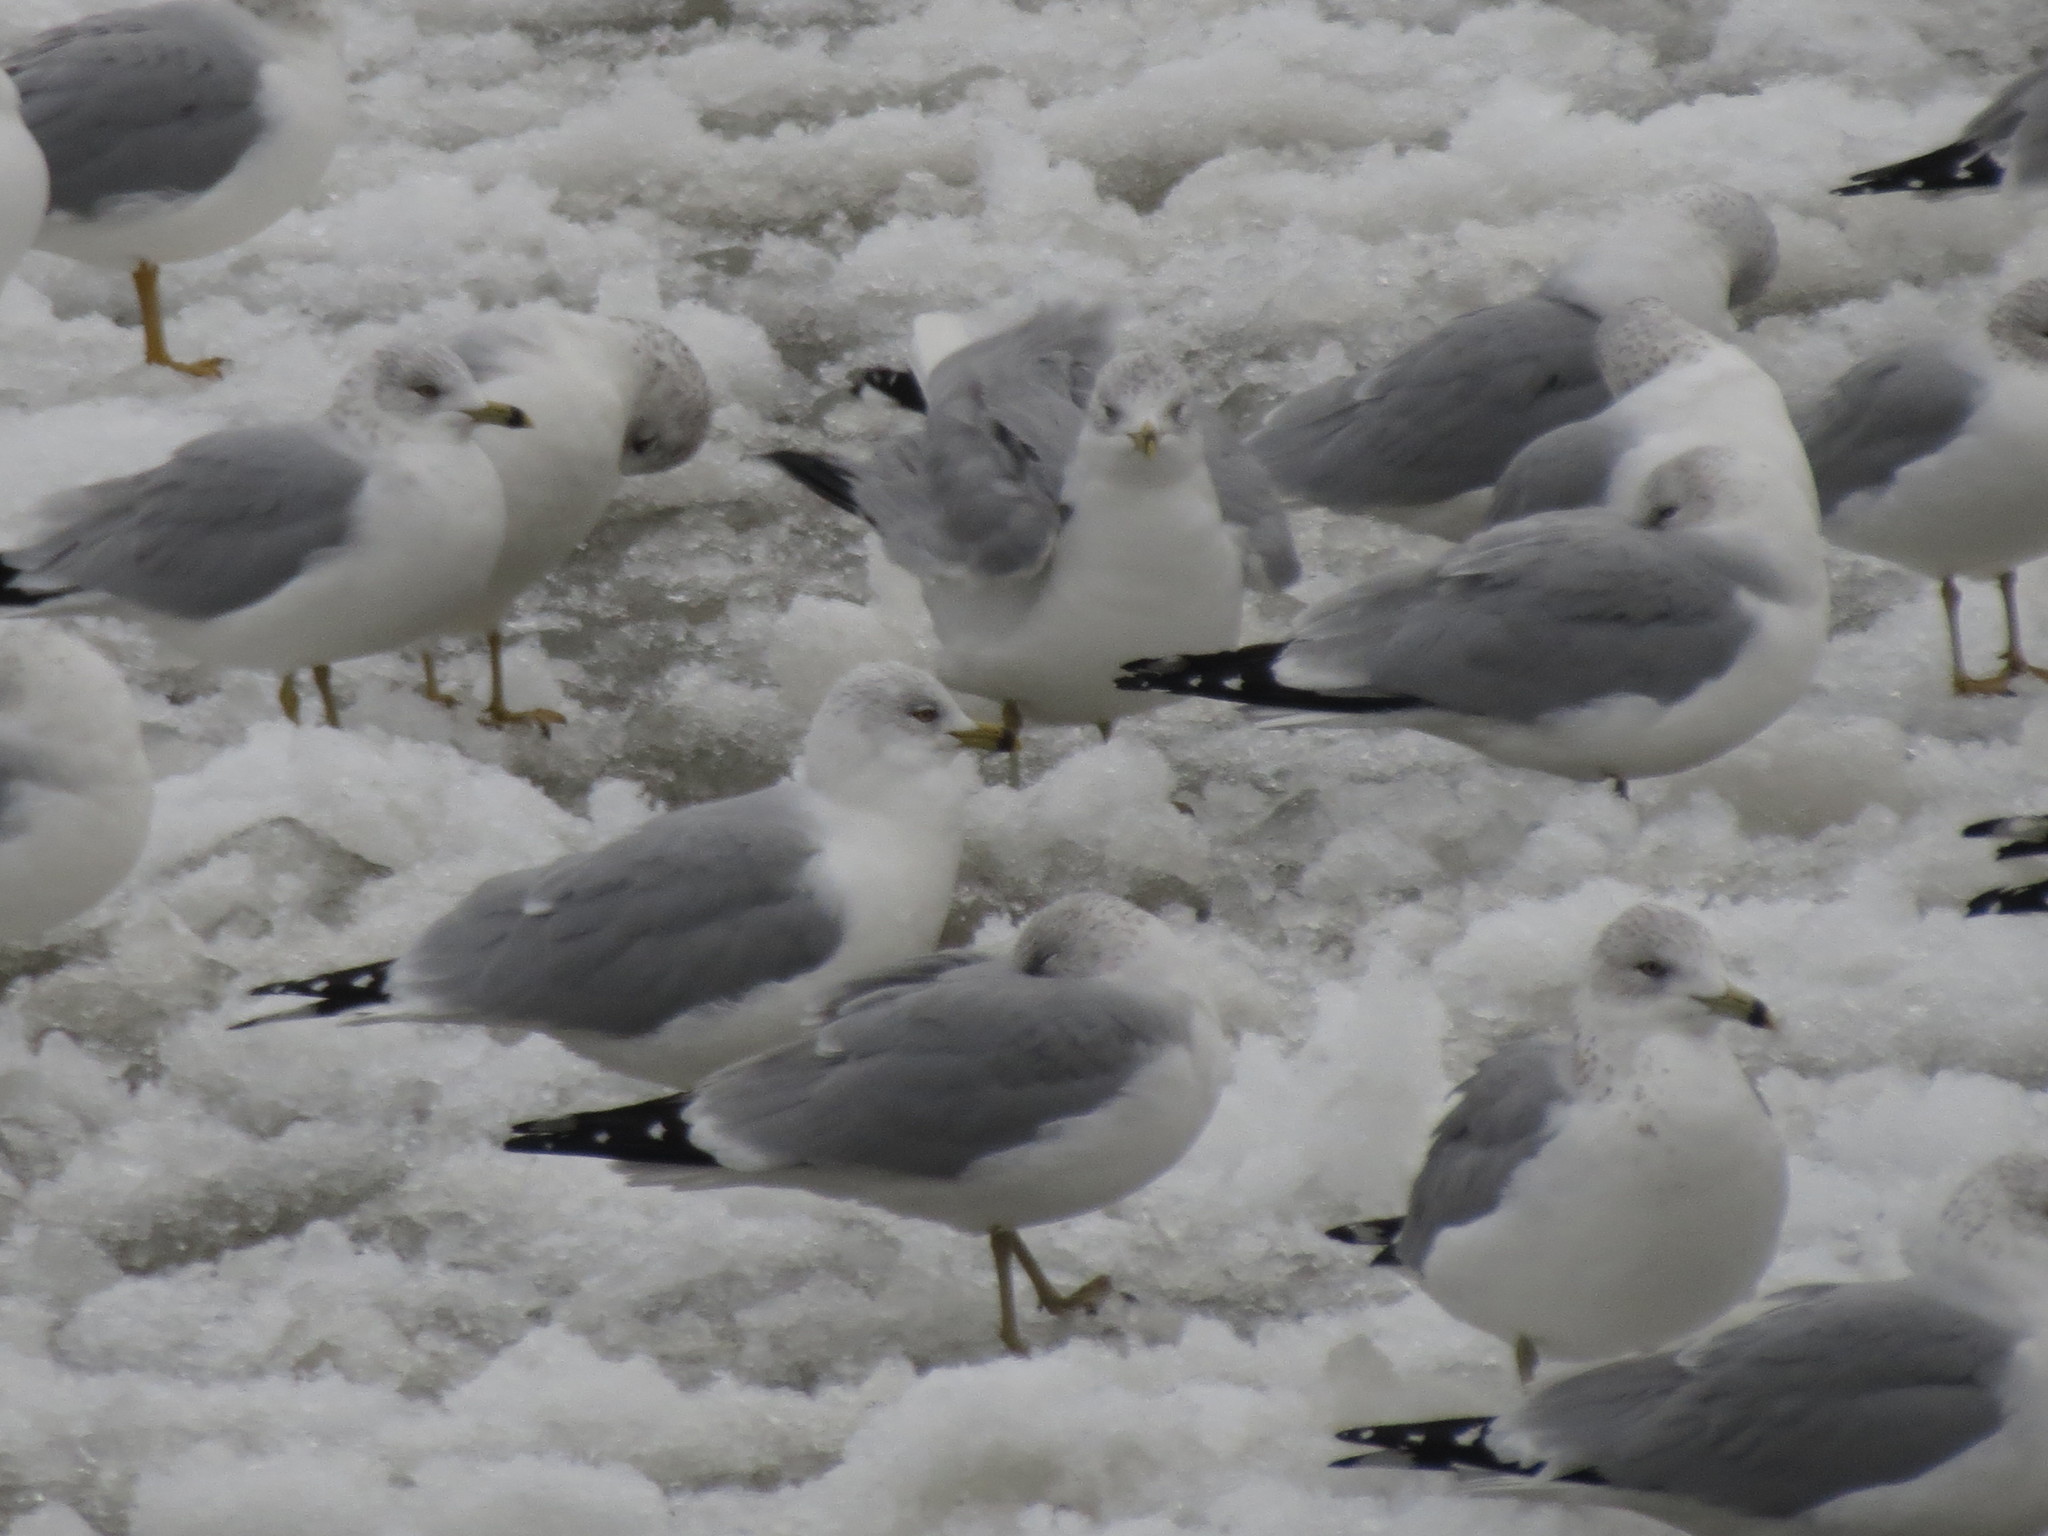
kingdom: Animalia
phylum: Chordata
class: Aves
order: Charadriiformes
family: Laridae
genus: Larus
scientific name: Larus delawarensis
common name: Ring-billed gull
